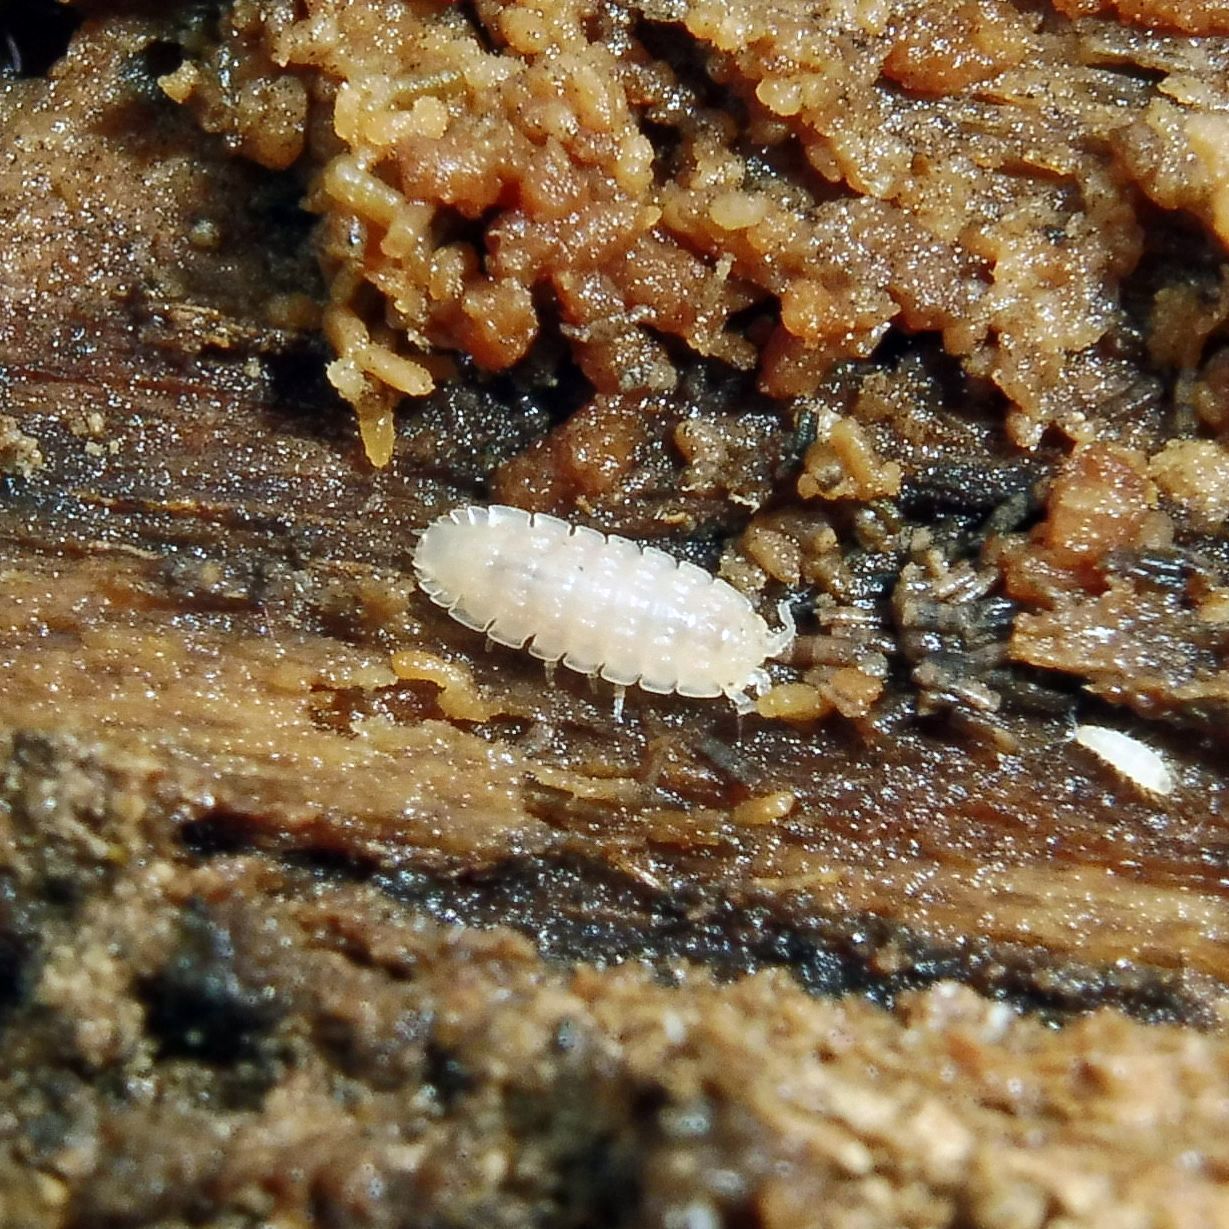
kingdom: Animalia
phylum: Arthropoda
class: Malacostraca
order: Isopoda
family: Trichoniscidae
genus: Haplophthalmus
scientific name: Haplophthalmus danicus
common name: Pillbug
